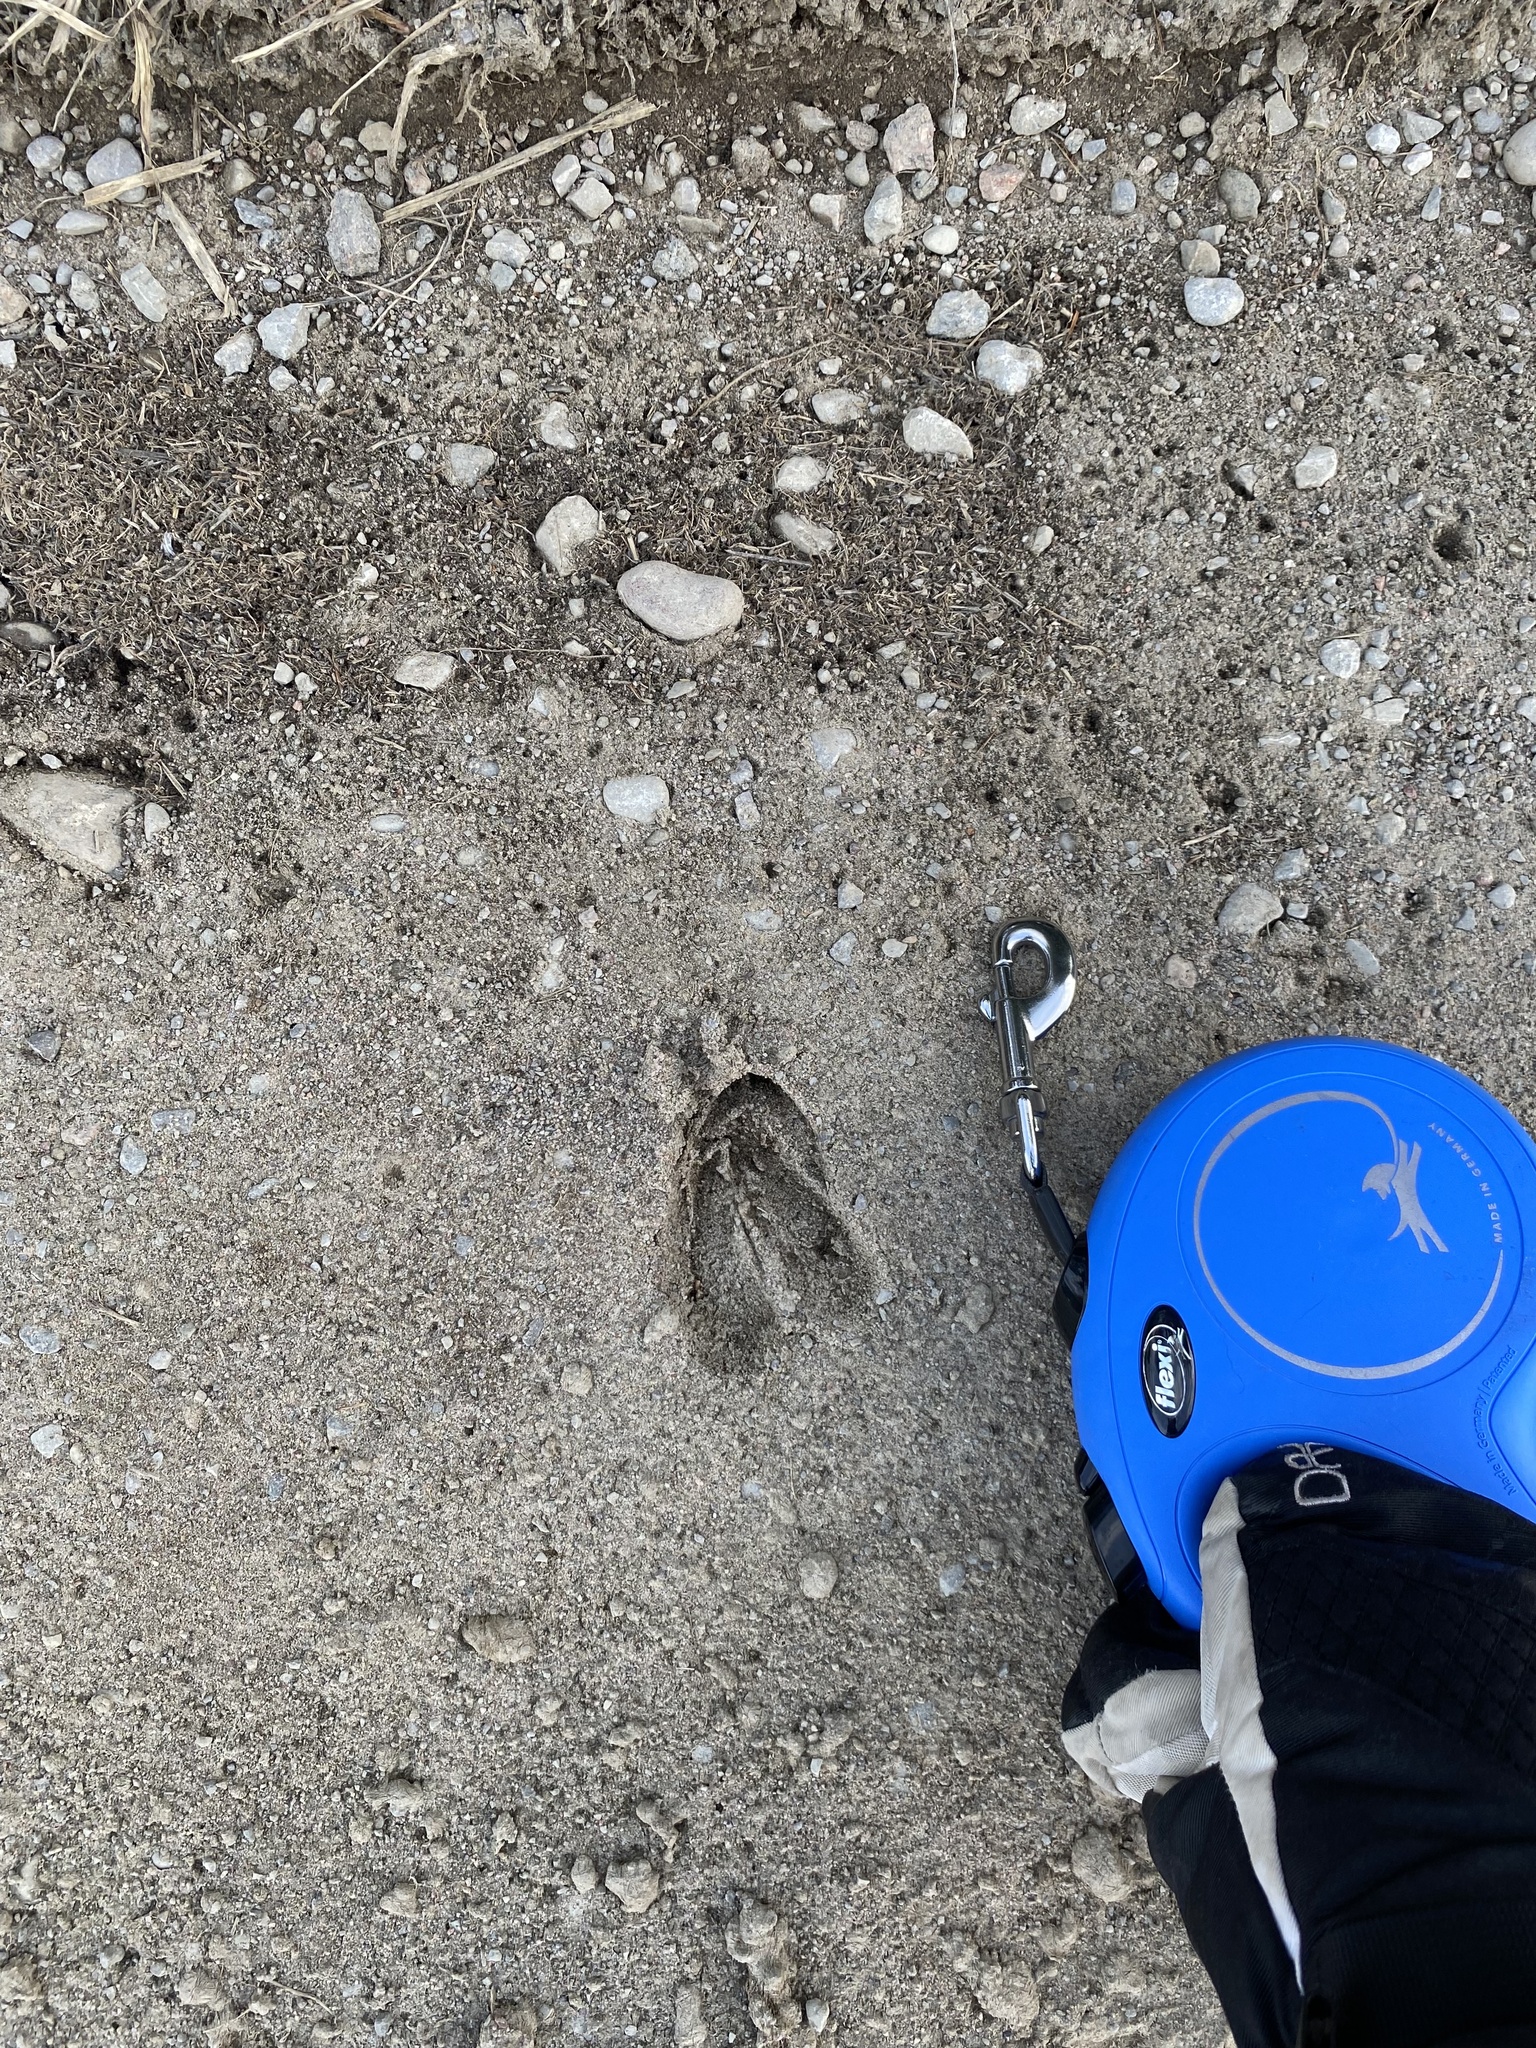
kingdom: Animalia
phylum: Chordata
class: Mammalia
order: Artiodactyla
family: Cervidae
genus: Odocoileus
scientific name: Odocoileus virginianus
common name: White-tailed deer
